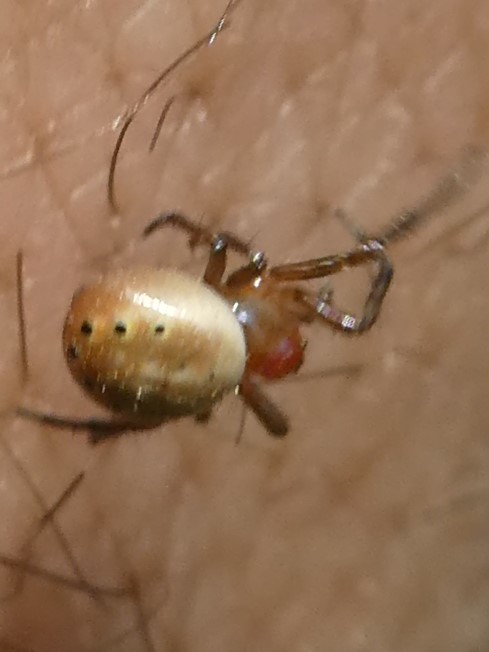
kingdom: Animalia
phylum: Arthropoda
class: Arachnida
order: Araneae
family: Araneidae
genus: Araniella
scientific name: Araniella displicata
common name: Sixspotted orb weaver
